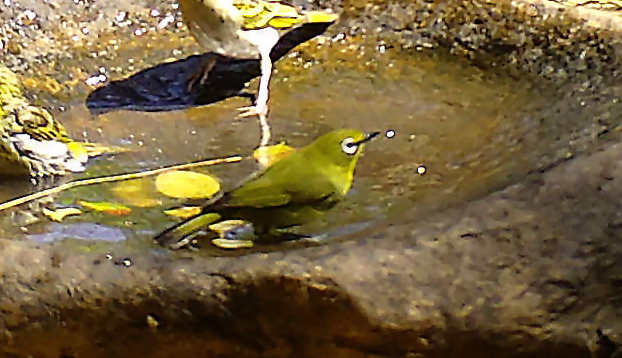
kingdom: Animalia
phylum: Chordata
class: Aves
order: Passeriformes
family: Zosteropidae
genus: Zosterops
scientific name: Zosterops virens
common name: Cape white-eye
